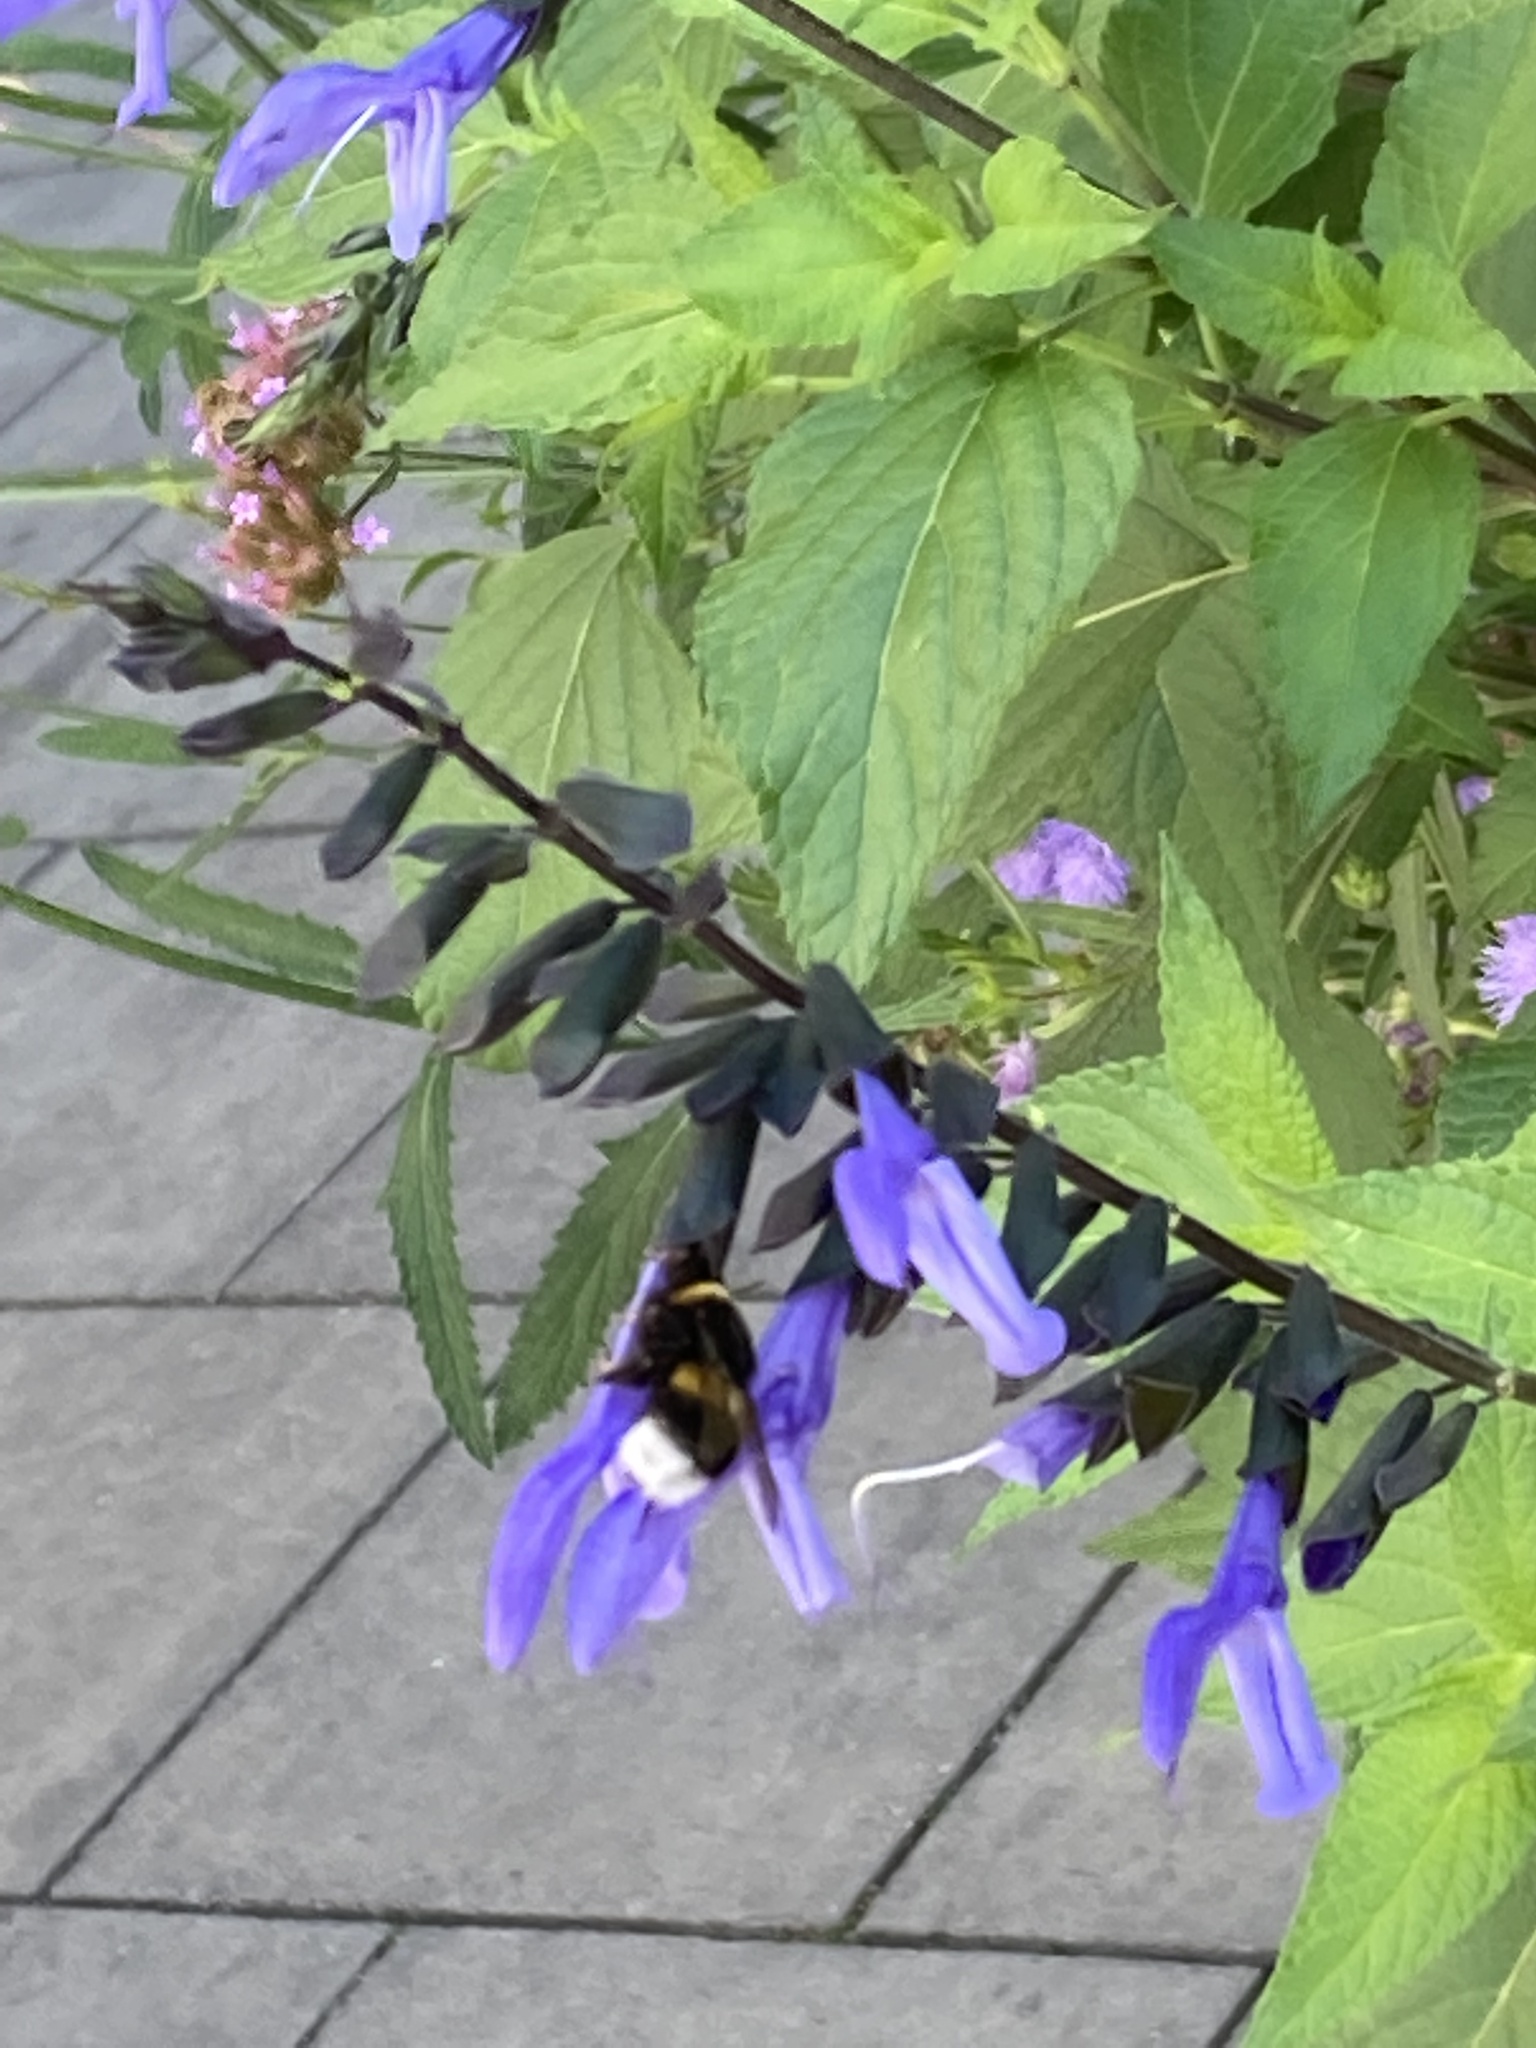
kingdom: Animalia
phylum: Arthropoda
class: Insecta
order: Hymenoptera
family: Apidae
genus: Bombus
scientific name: Bombus
